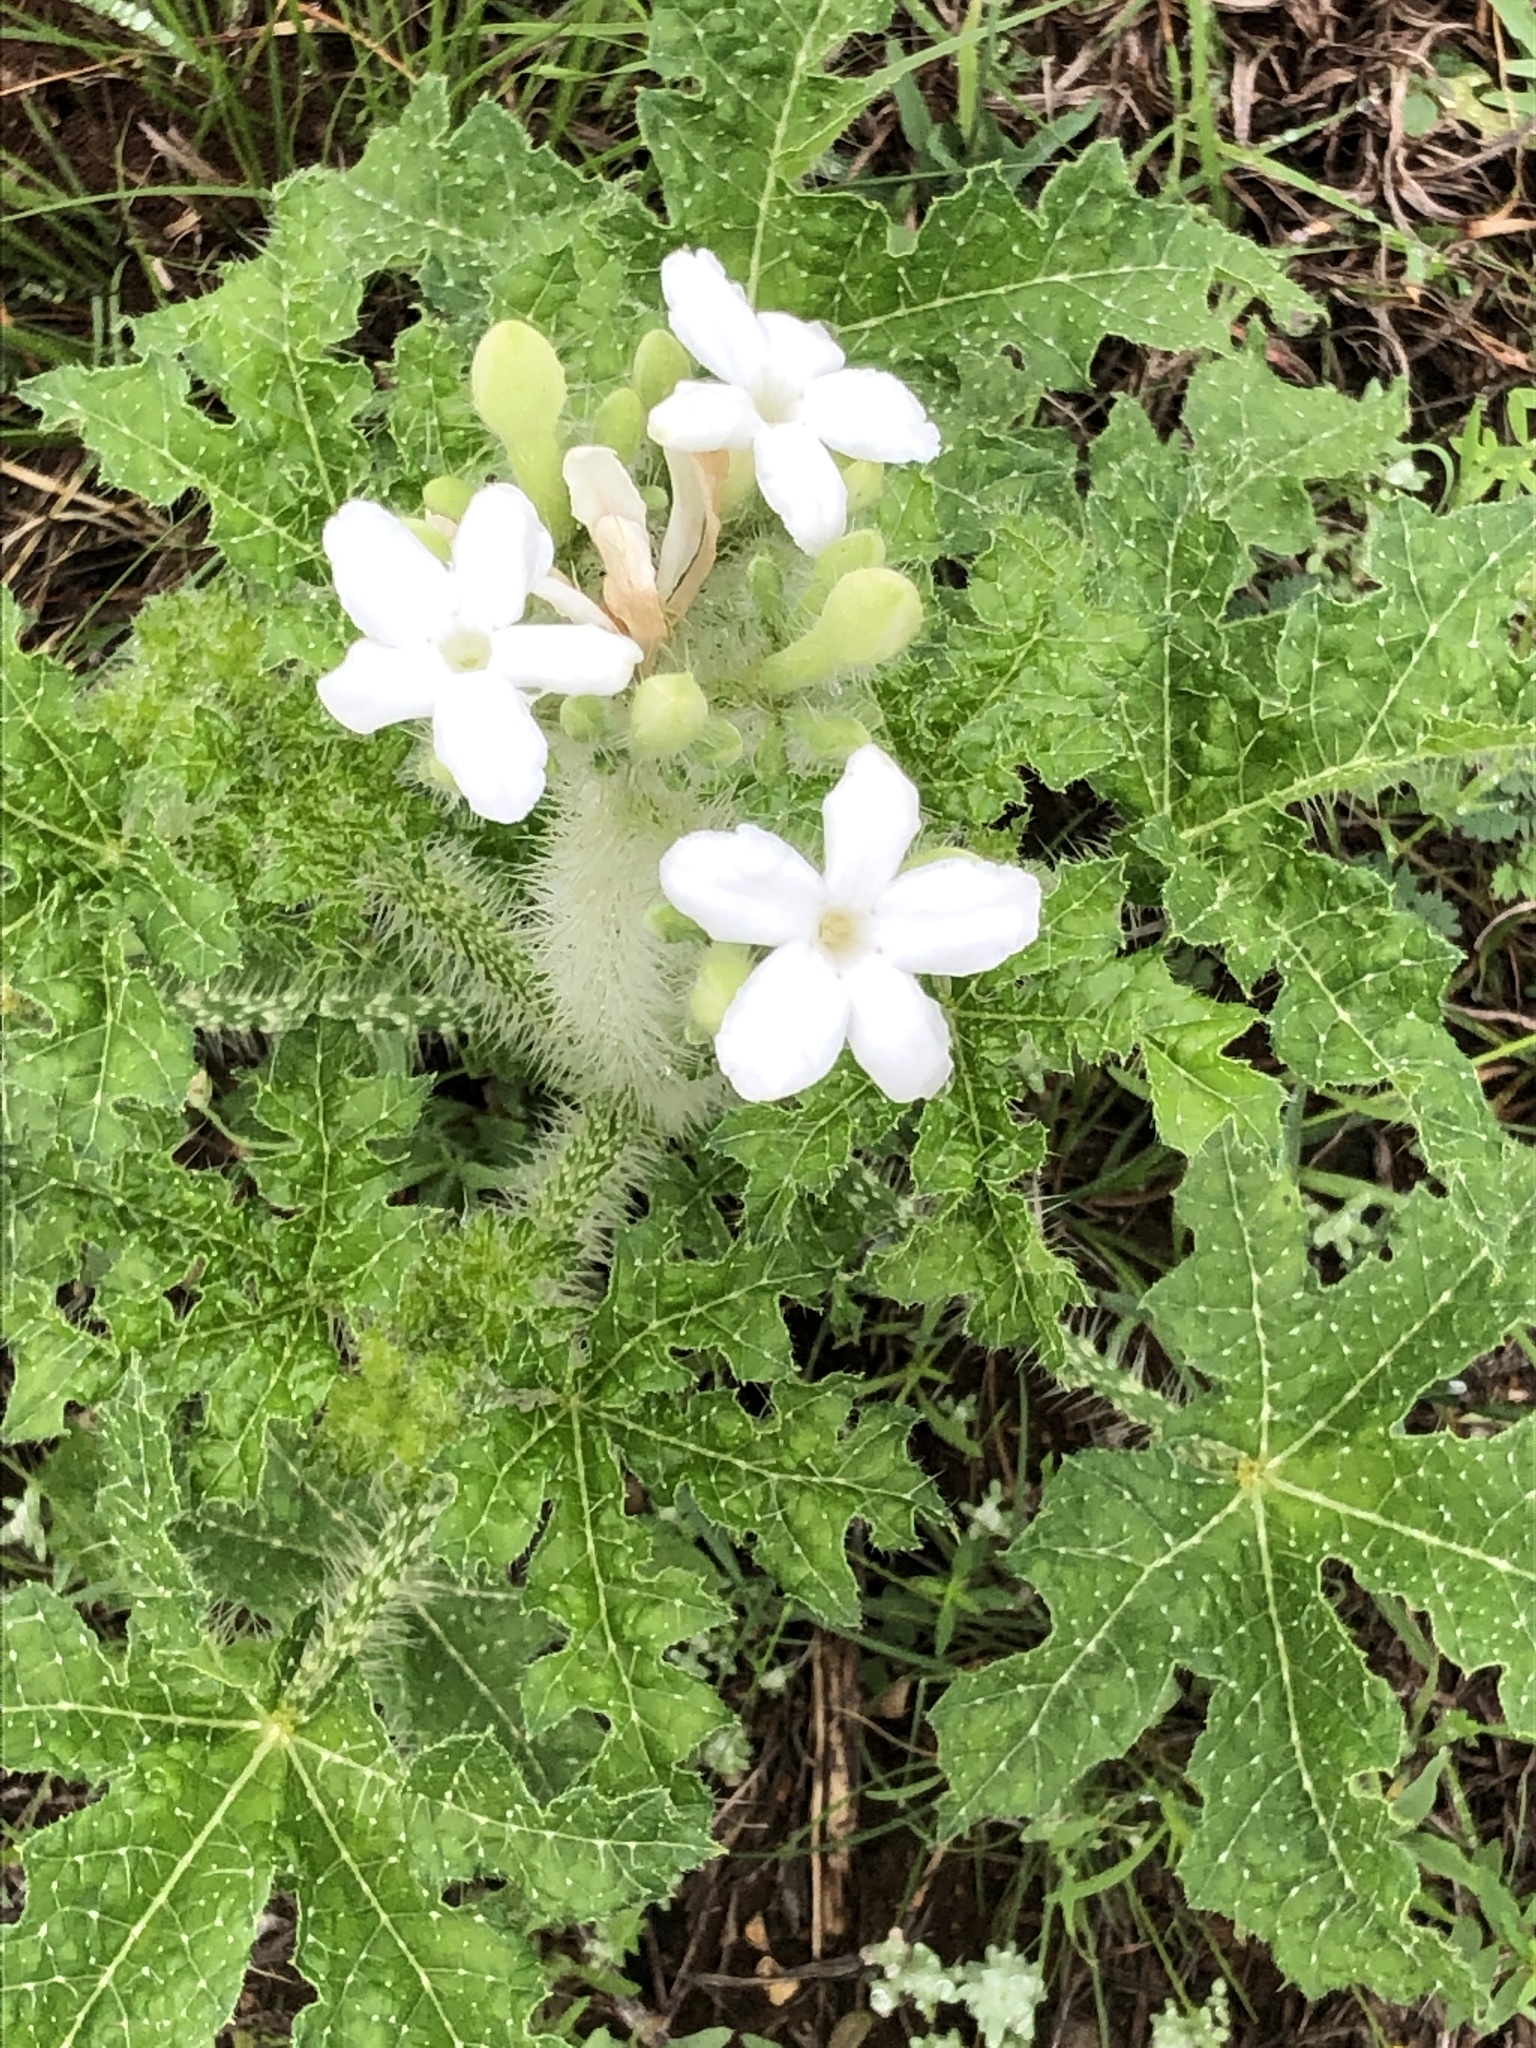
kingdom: Plantae
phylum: Tracheophyta
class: Magnoliopsida
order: Malpighiales
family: Euphorbiaceae
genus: Cnidoscolus
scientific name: Cnidoscolus texanus
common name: Texas bull-nettle
